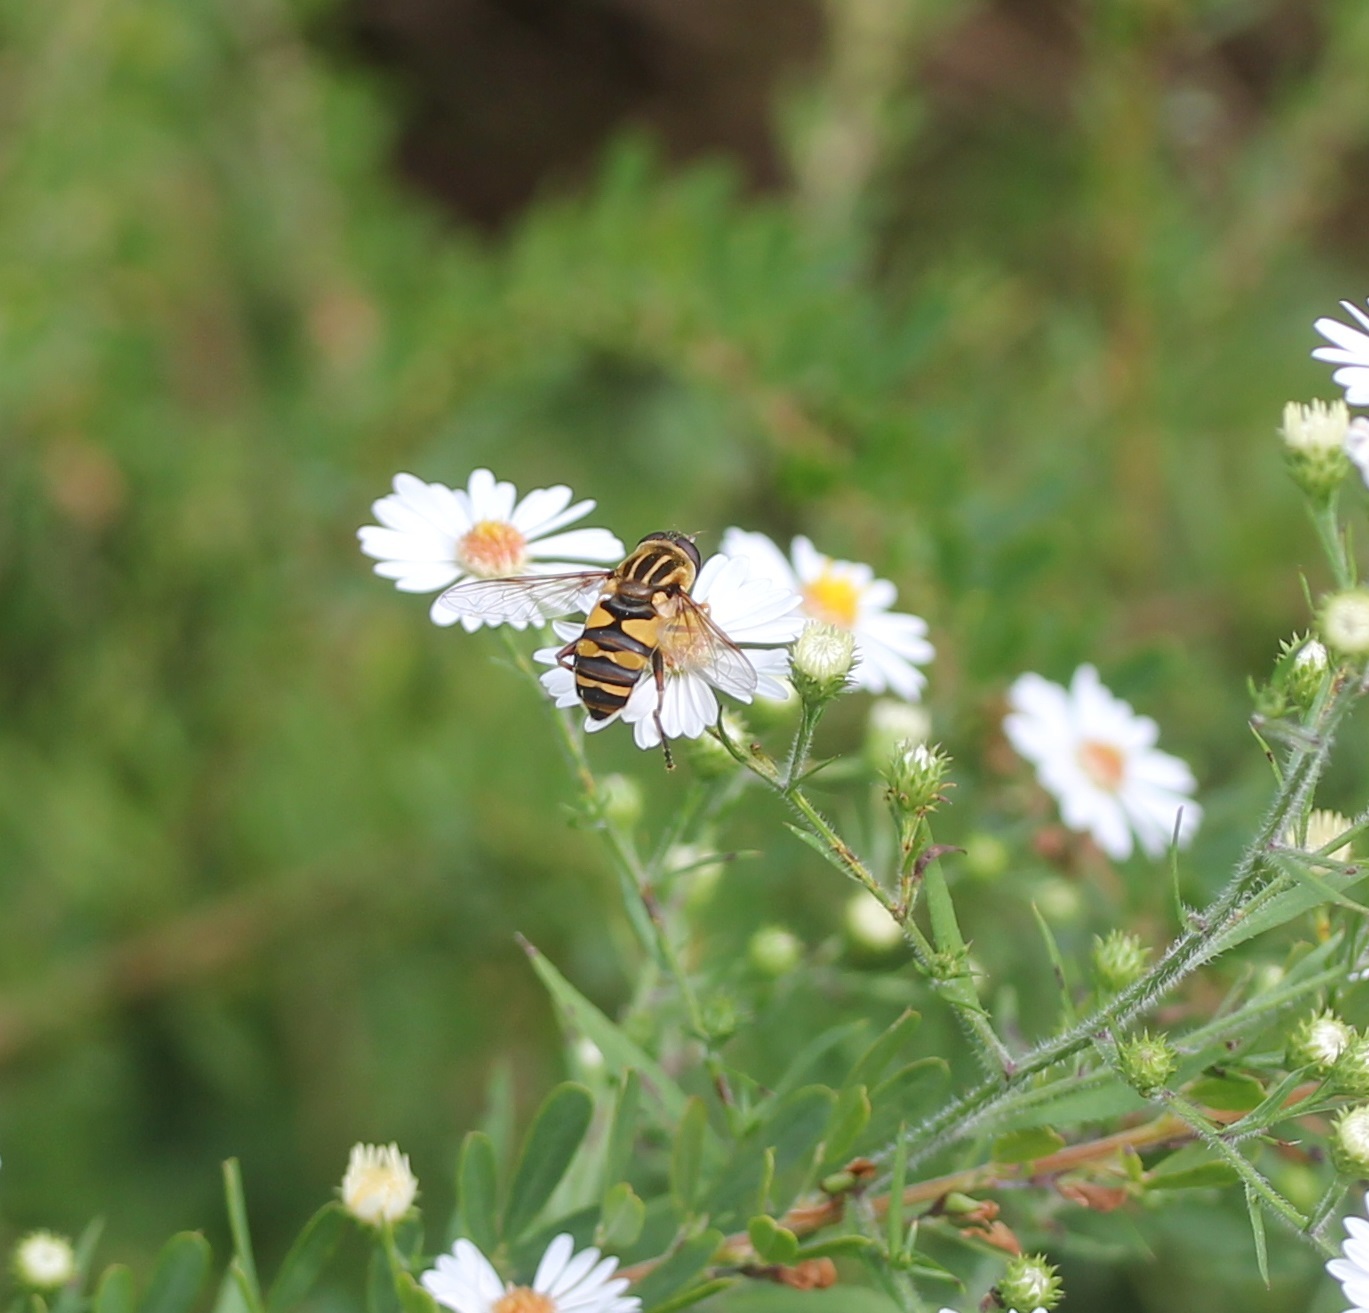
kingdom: Animalia
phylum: Arthropoda
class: Insecta
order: Diptera
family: Syrphidae
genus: Helophilus
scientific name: Helophilus fasciatus
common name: Narrow-headed marsh fly
